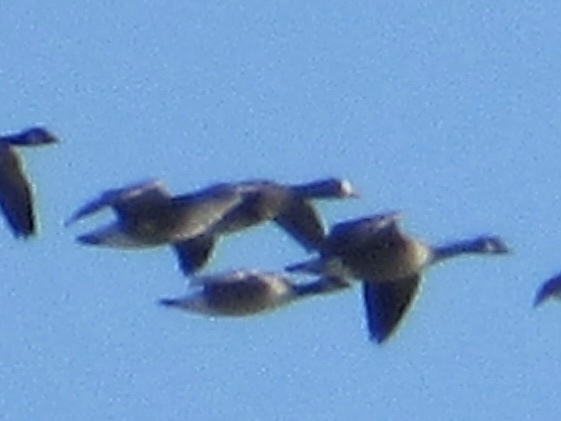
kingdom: Animalia
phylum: Chordata
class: Aves
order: Anseriformes
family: Anatidae
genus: Anser
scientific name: Anser albifrons
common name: Greater white-fronted goose
